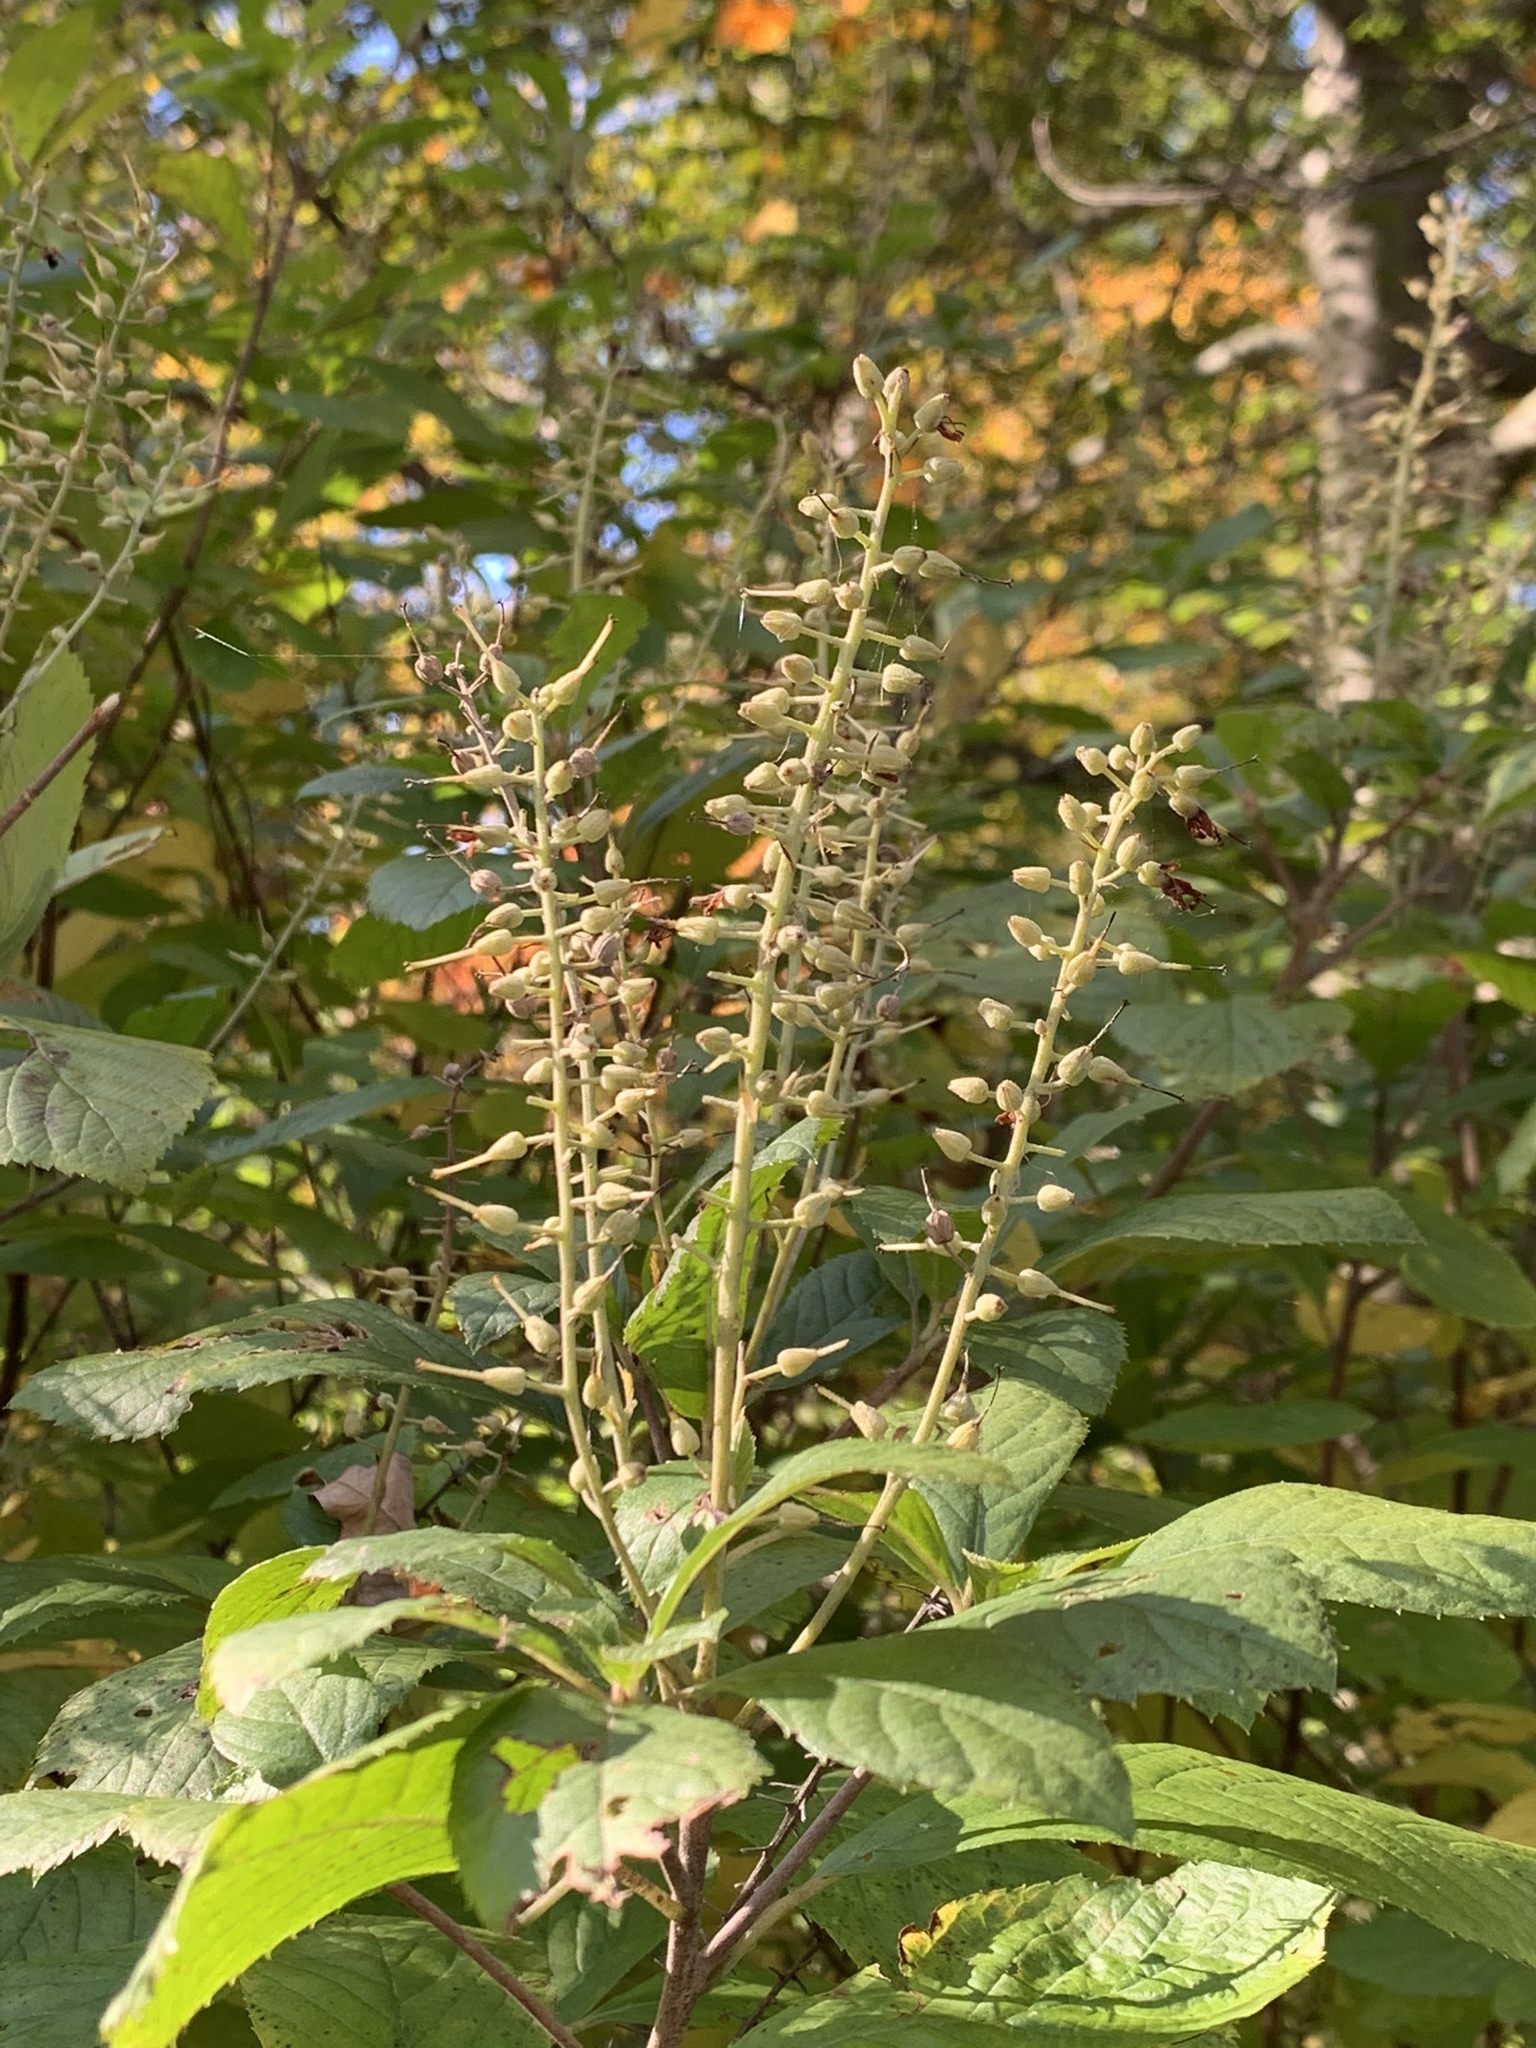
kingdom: Plantae
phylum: Tracheophyta
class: Magnoliopsida
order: Ericales
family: Clethraceae
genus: Clethra
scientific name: Clethra alnifolia
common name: Sweet pepperbush
